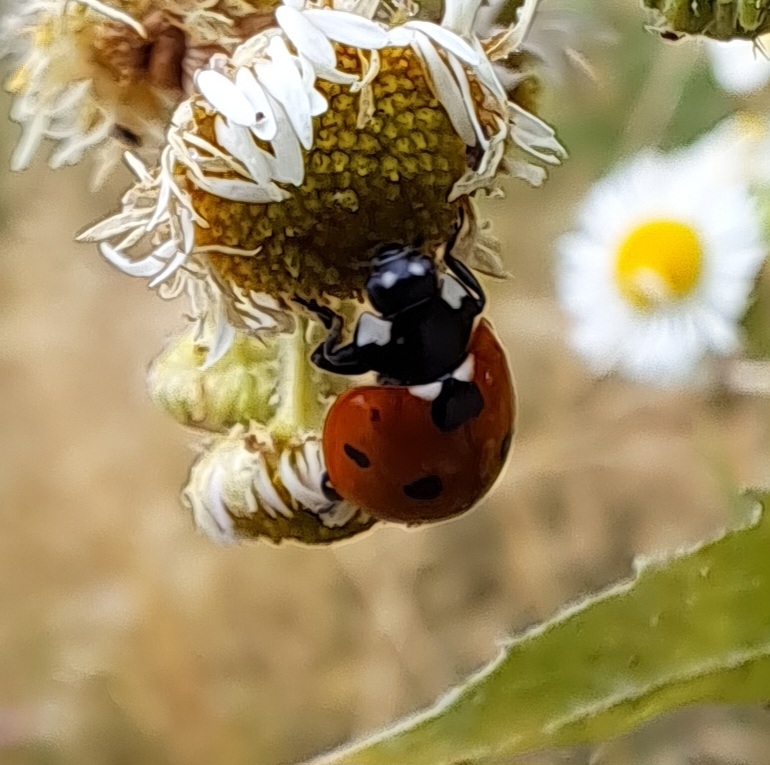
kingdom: Animalia
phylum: Arthropoda
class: Insecta
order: Coleoptera
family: Coccinellidae
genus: Coccinella
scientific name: Coccinella septempunctata
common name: Sevenspotted lady beetle
